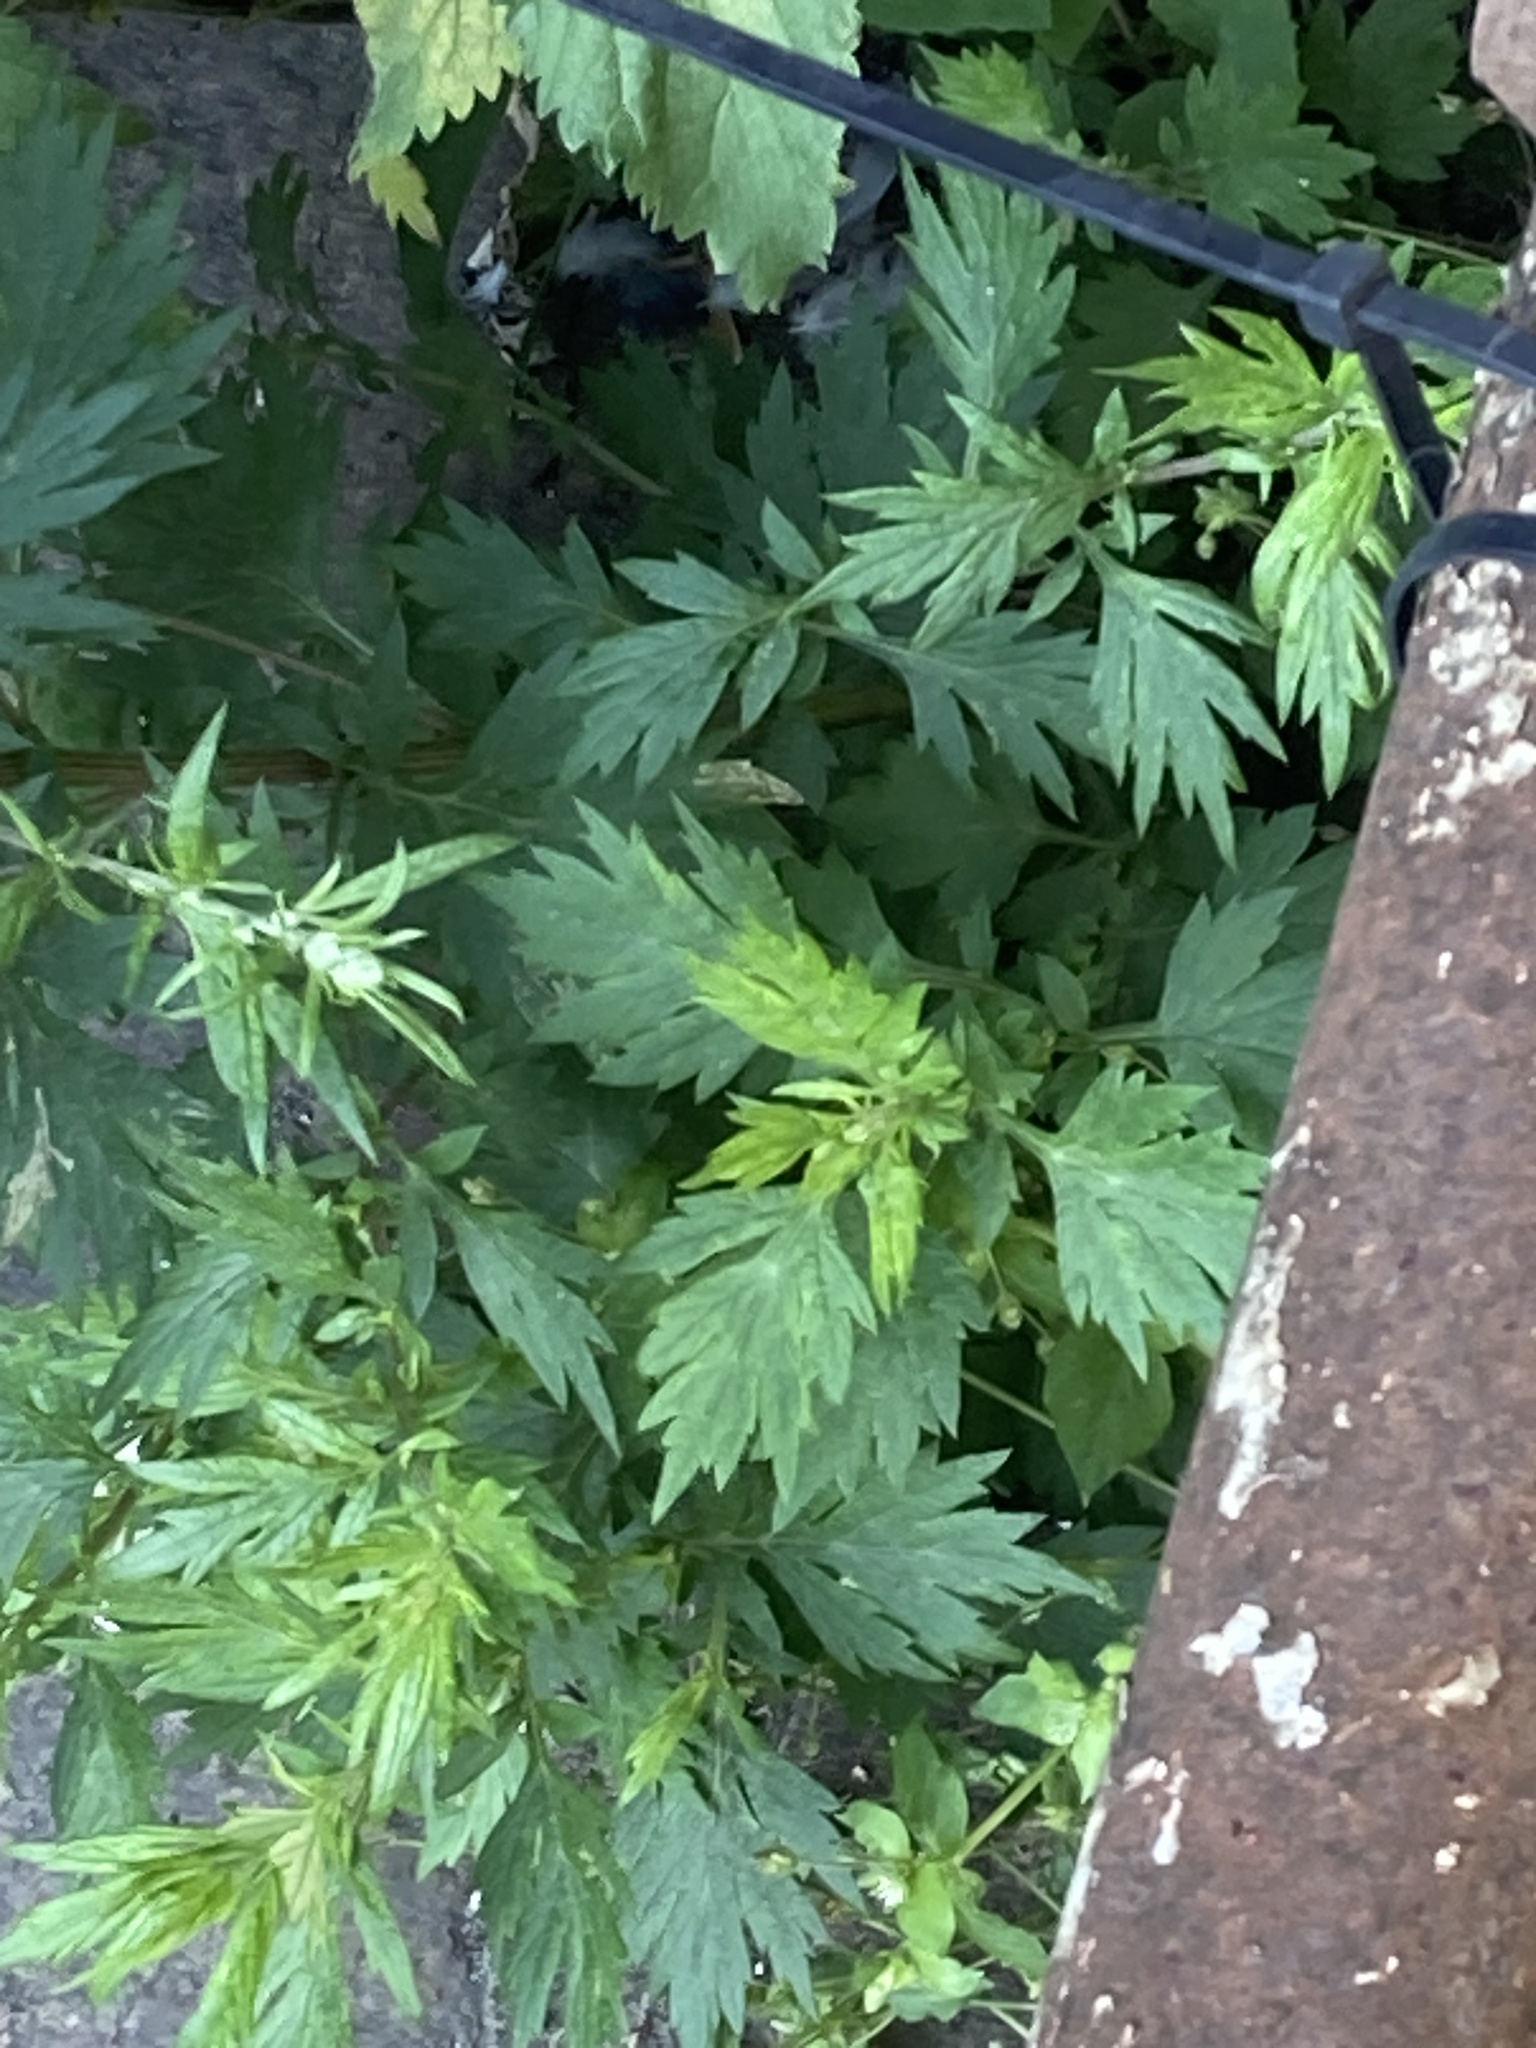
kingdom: Plantae
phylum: Tracheophyta
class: Magnoliopsida
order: Asterales
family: Asteraceae
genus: Artemisia
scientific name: Artemisia vulgaris
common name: Mugwort
